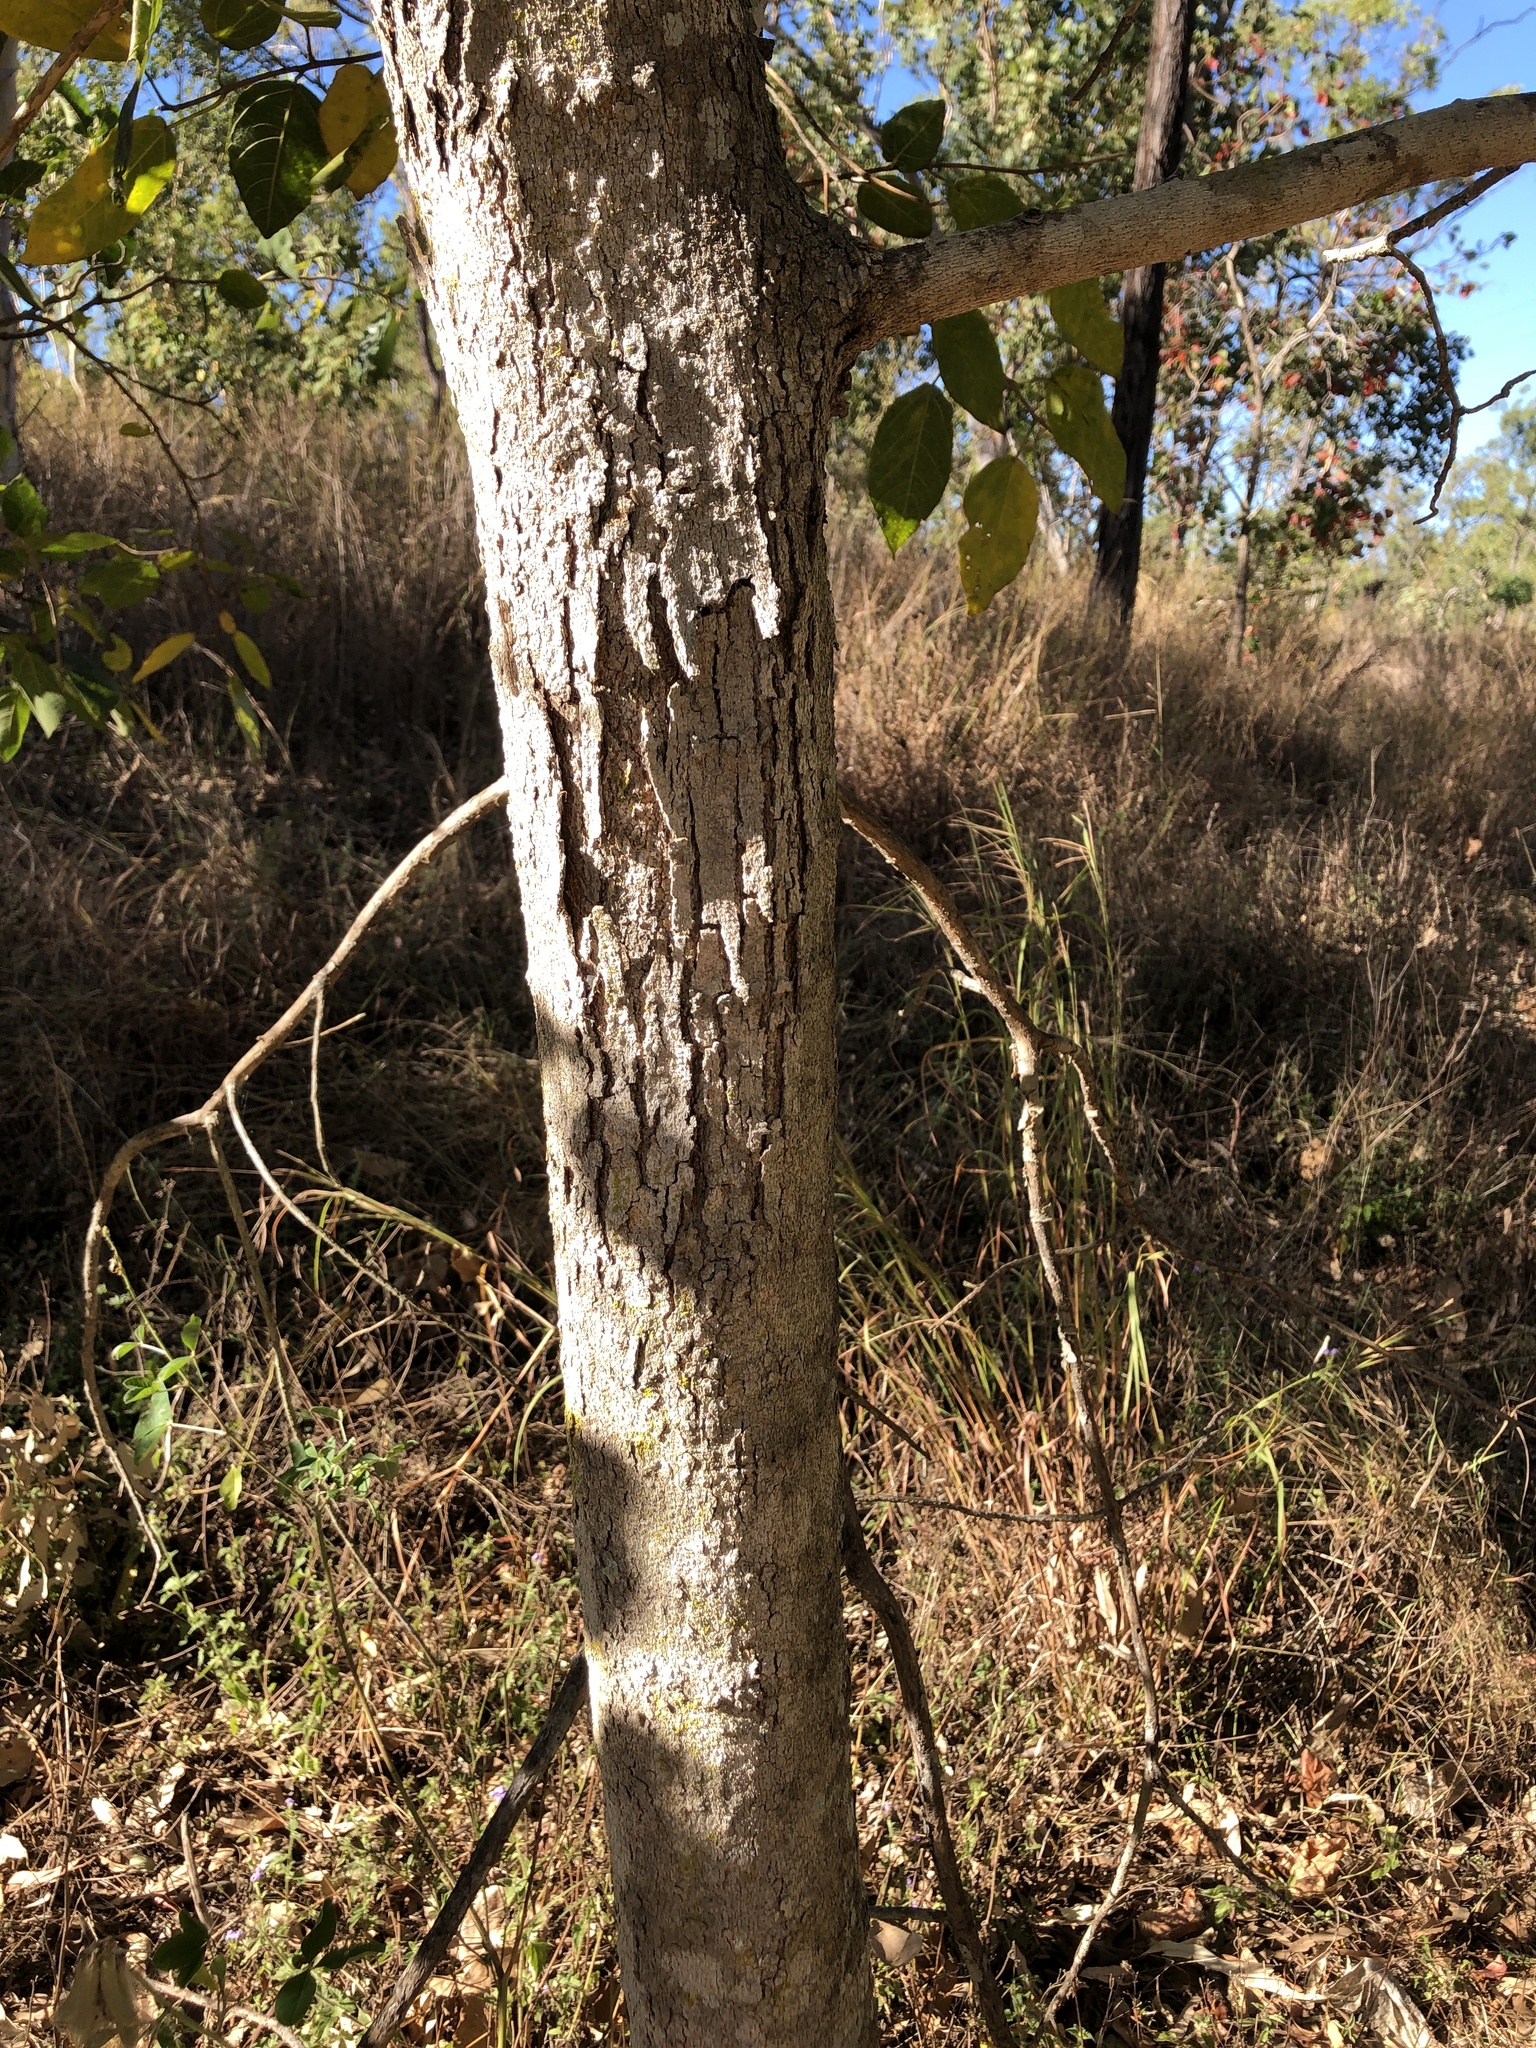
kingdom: Plantae
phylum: Tracheophyta
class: Magnoliopsida
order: Rosales
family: Moraceae
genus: Ficus
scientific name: Ficus opposita
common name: Figwood
